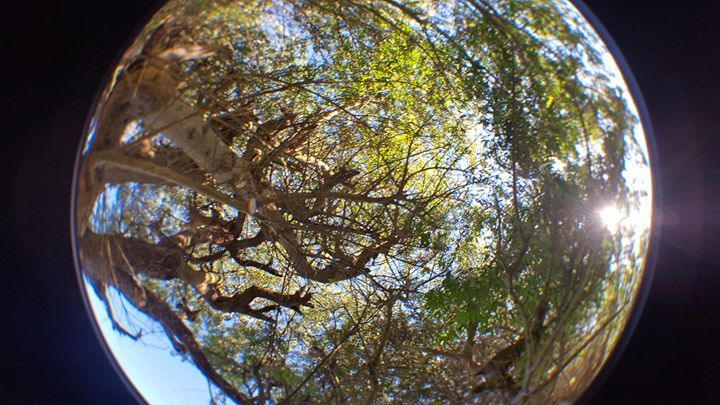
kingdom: Plantae
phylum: Tracheophyta
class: Magnoliopsida
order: Fabales
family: Fabaceae
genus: Chamaecytisus
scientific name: Chamaecytisus prolifer
